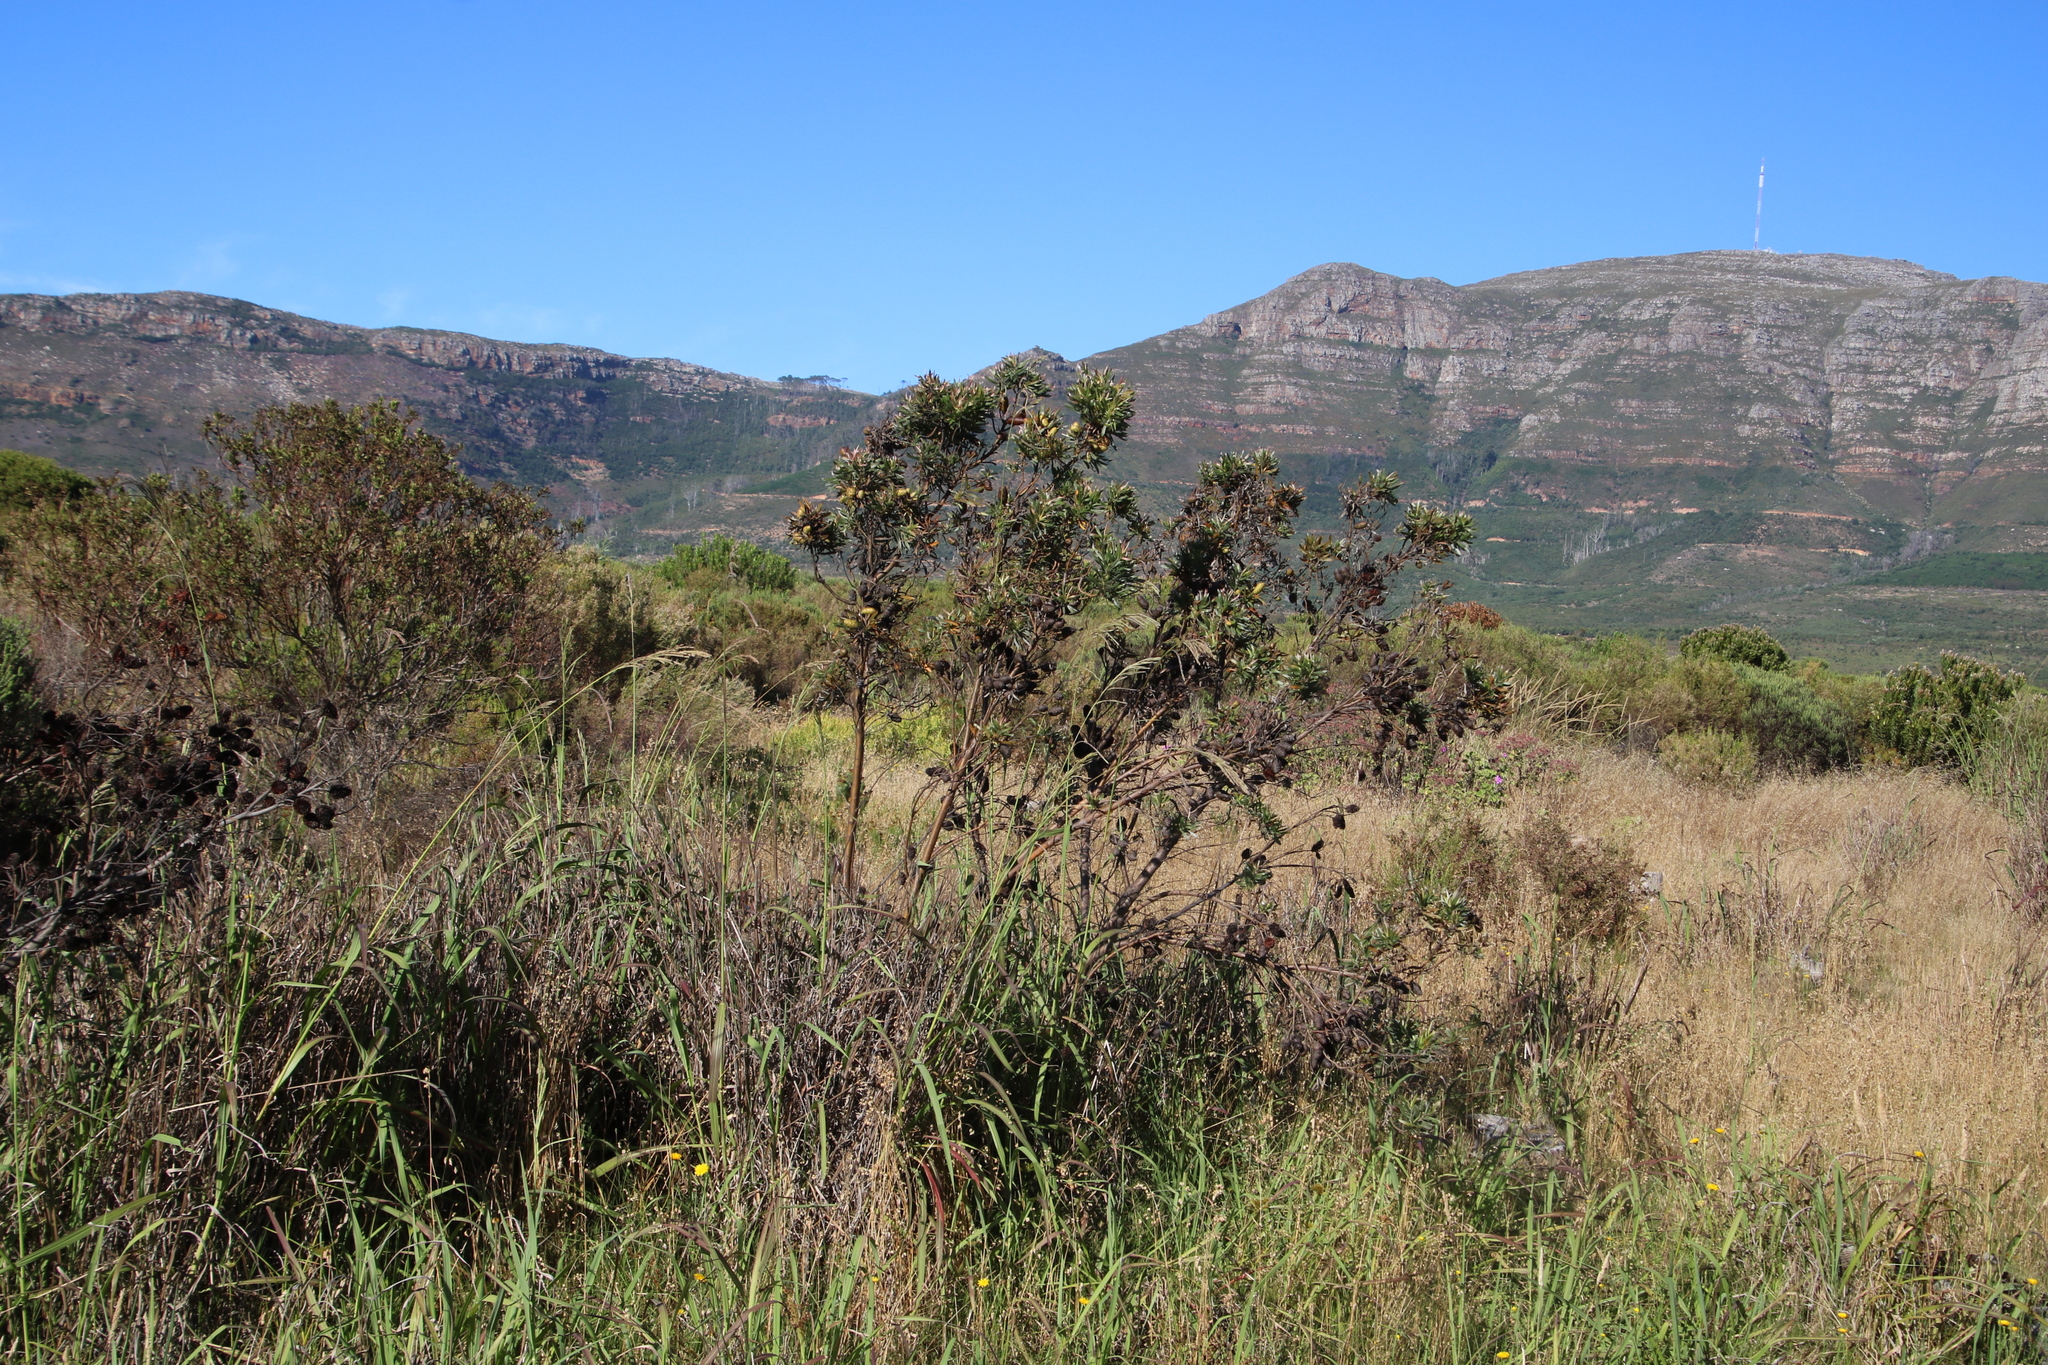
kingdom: Plantae
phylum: Tracheophyta
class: Magnoliopsida
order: Proteales
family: Proteaceae
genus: Leucadendron
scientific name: Leucadendron macowanii
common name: Acacia-leaf conebush
